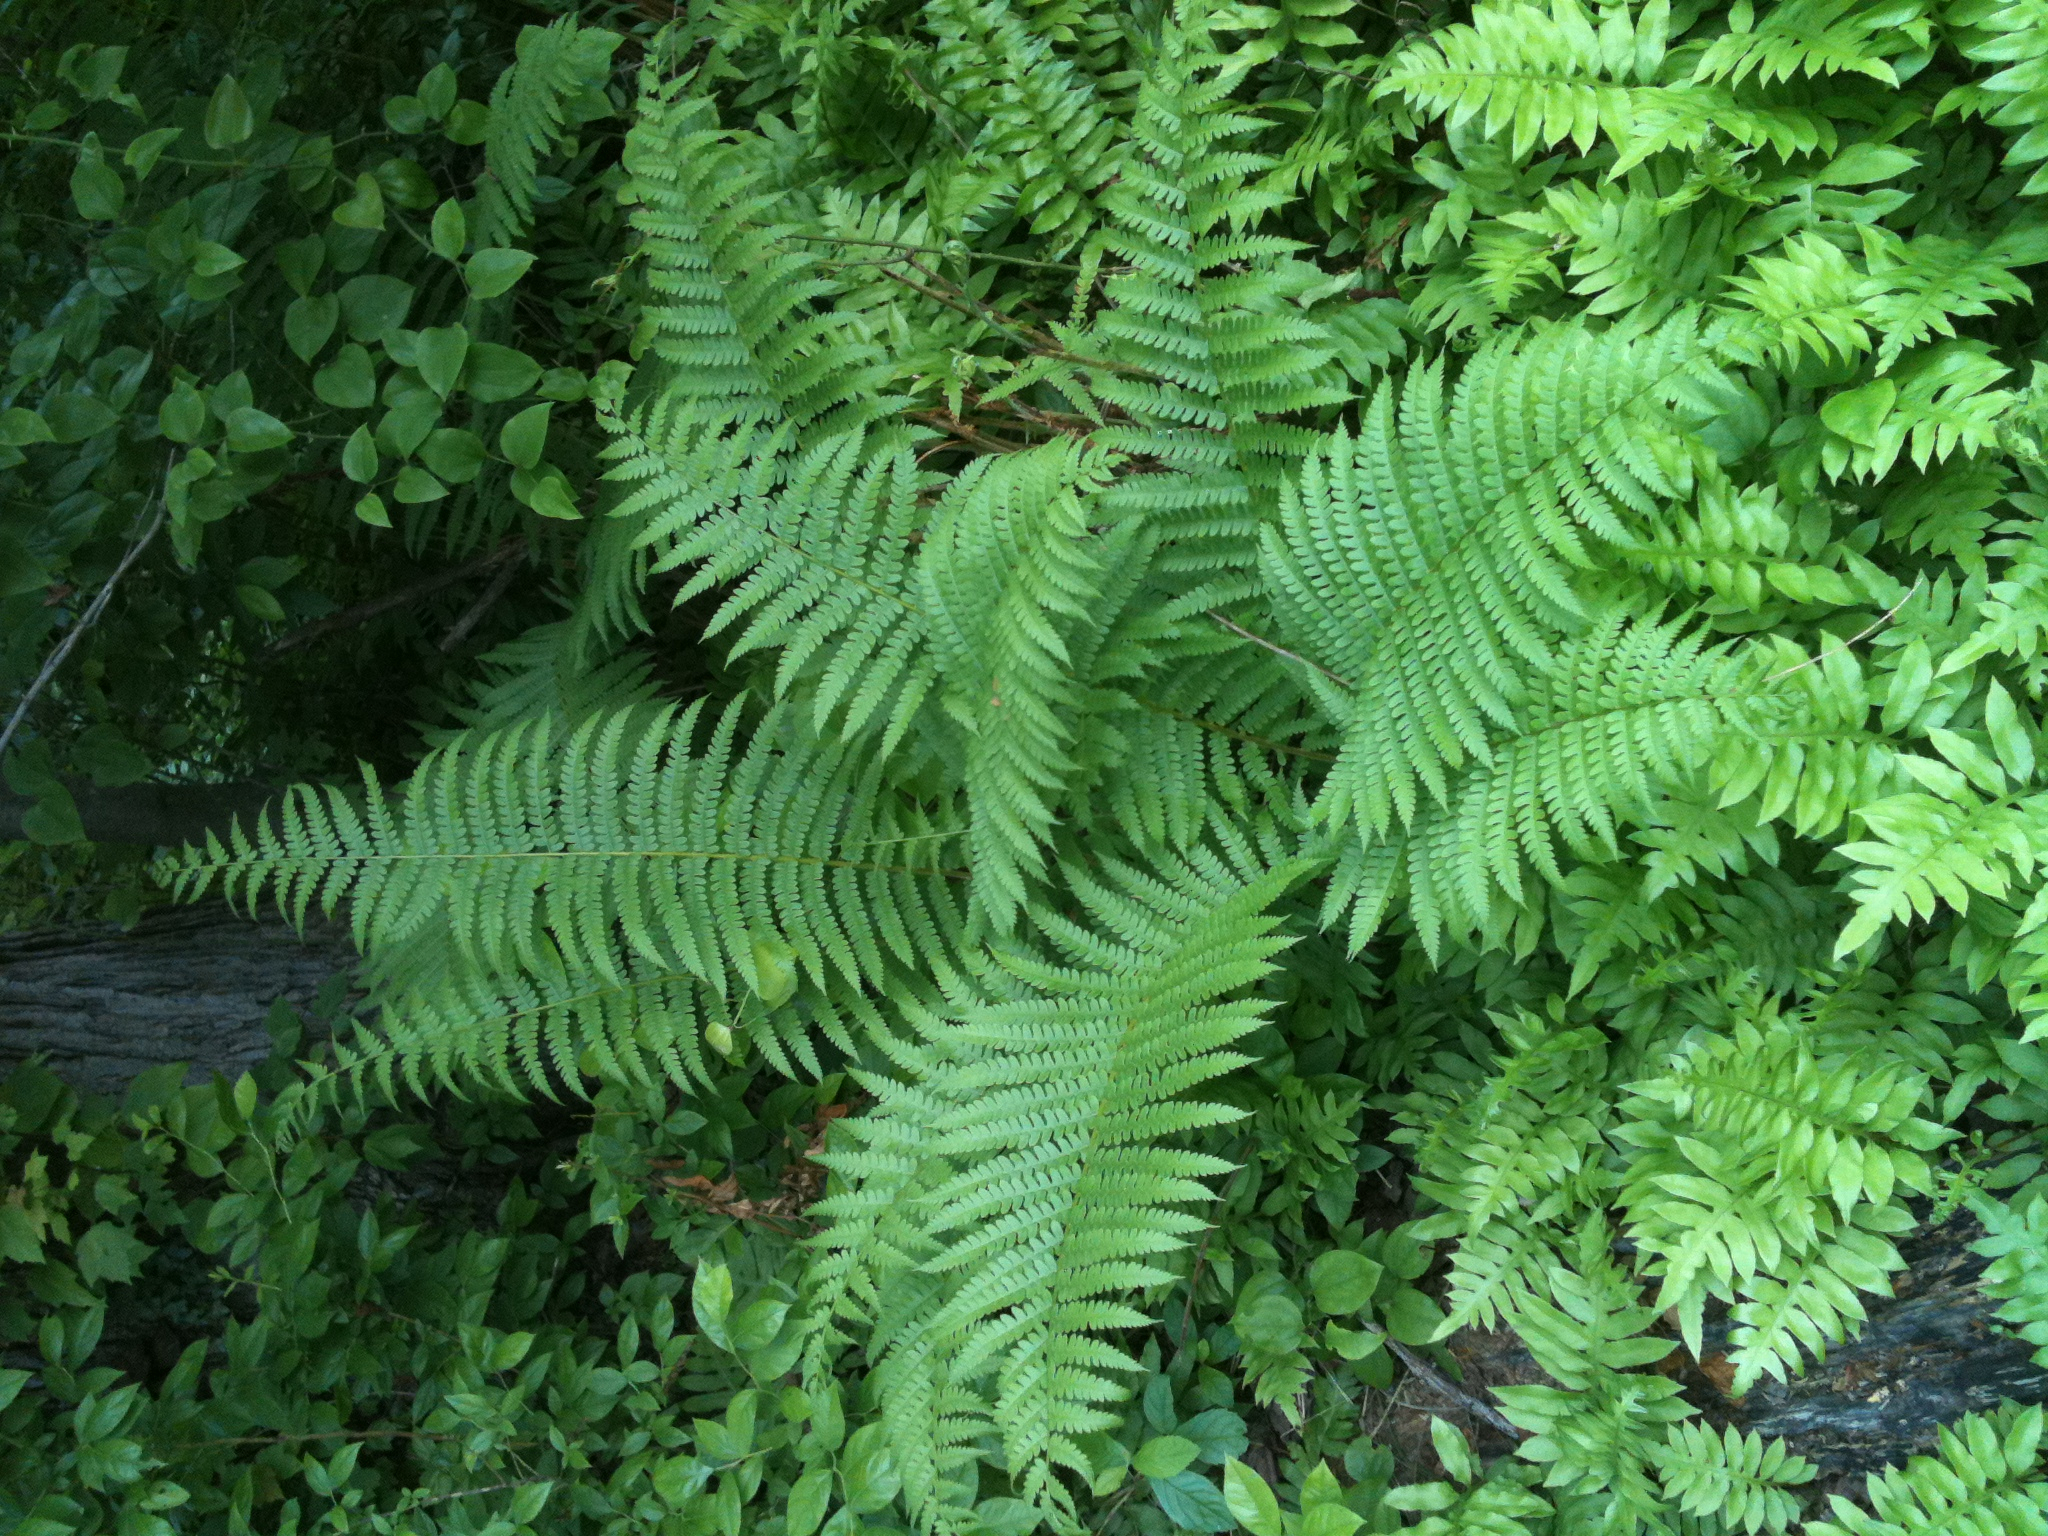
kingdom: Plantae
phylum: Tracheophyta
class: Polypodiopsida
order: Osmundales
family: Osmundaceae
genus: Osmundastrum
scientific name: Osmundastrum cinnamomeum
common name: Cinnamon fern
